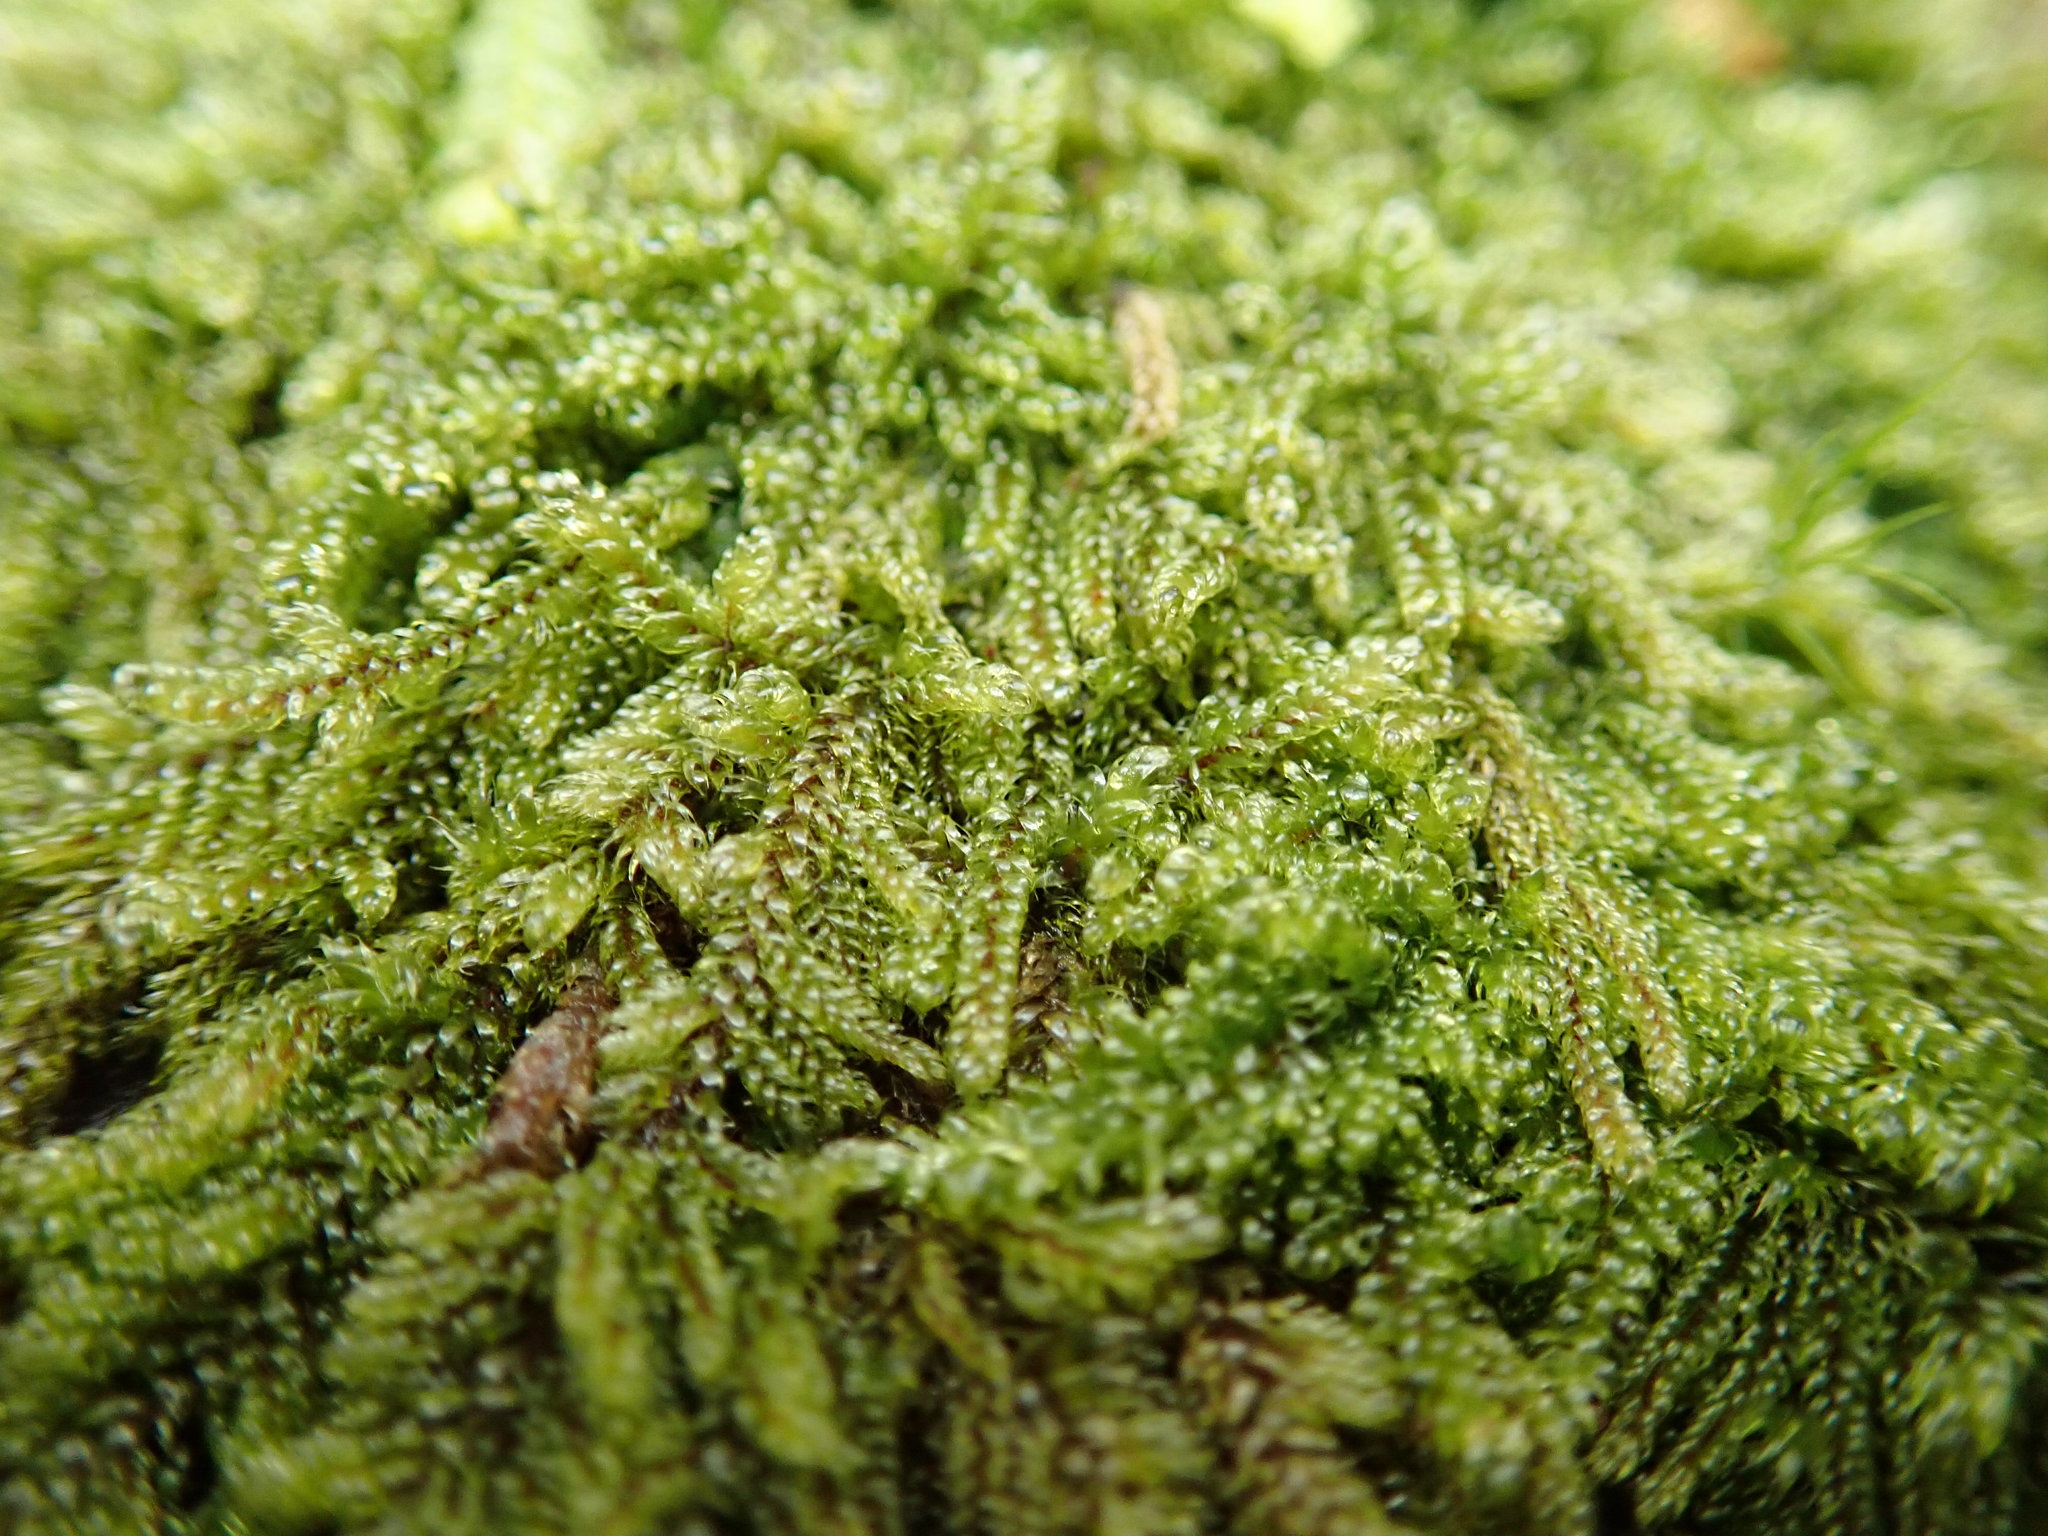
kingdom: Plantae
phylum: Bryophyta
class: Bryopsida
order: Hypnales
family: Pylaisiadelphaceae
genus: Trochophyllohypnum
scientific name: Trochophyllohypnum circinale
